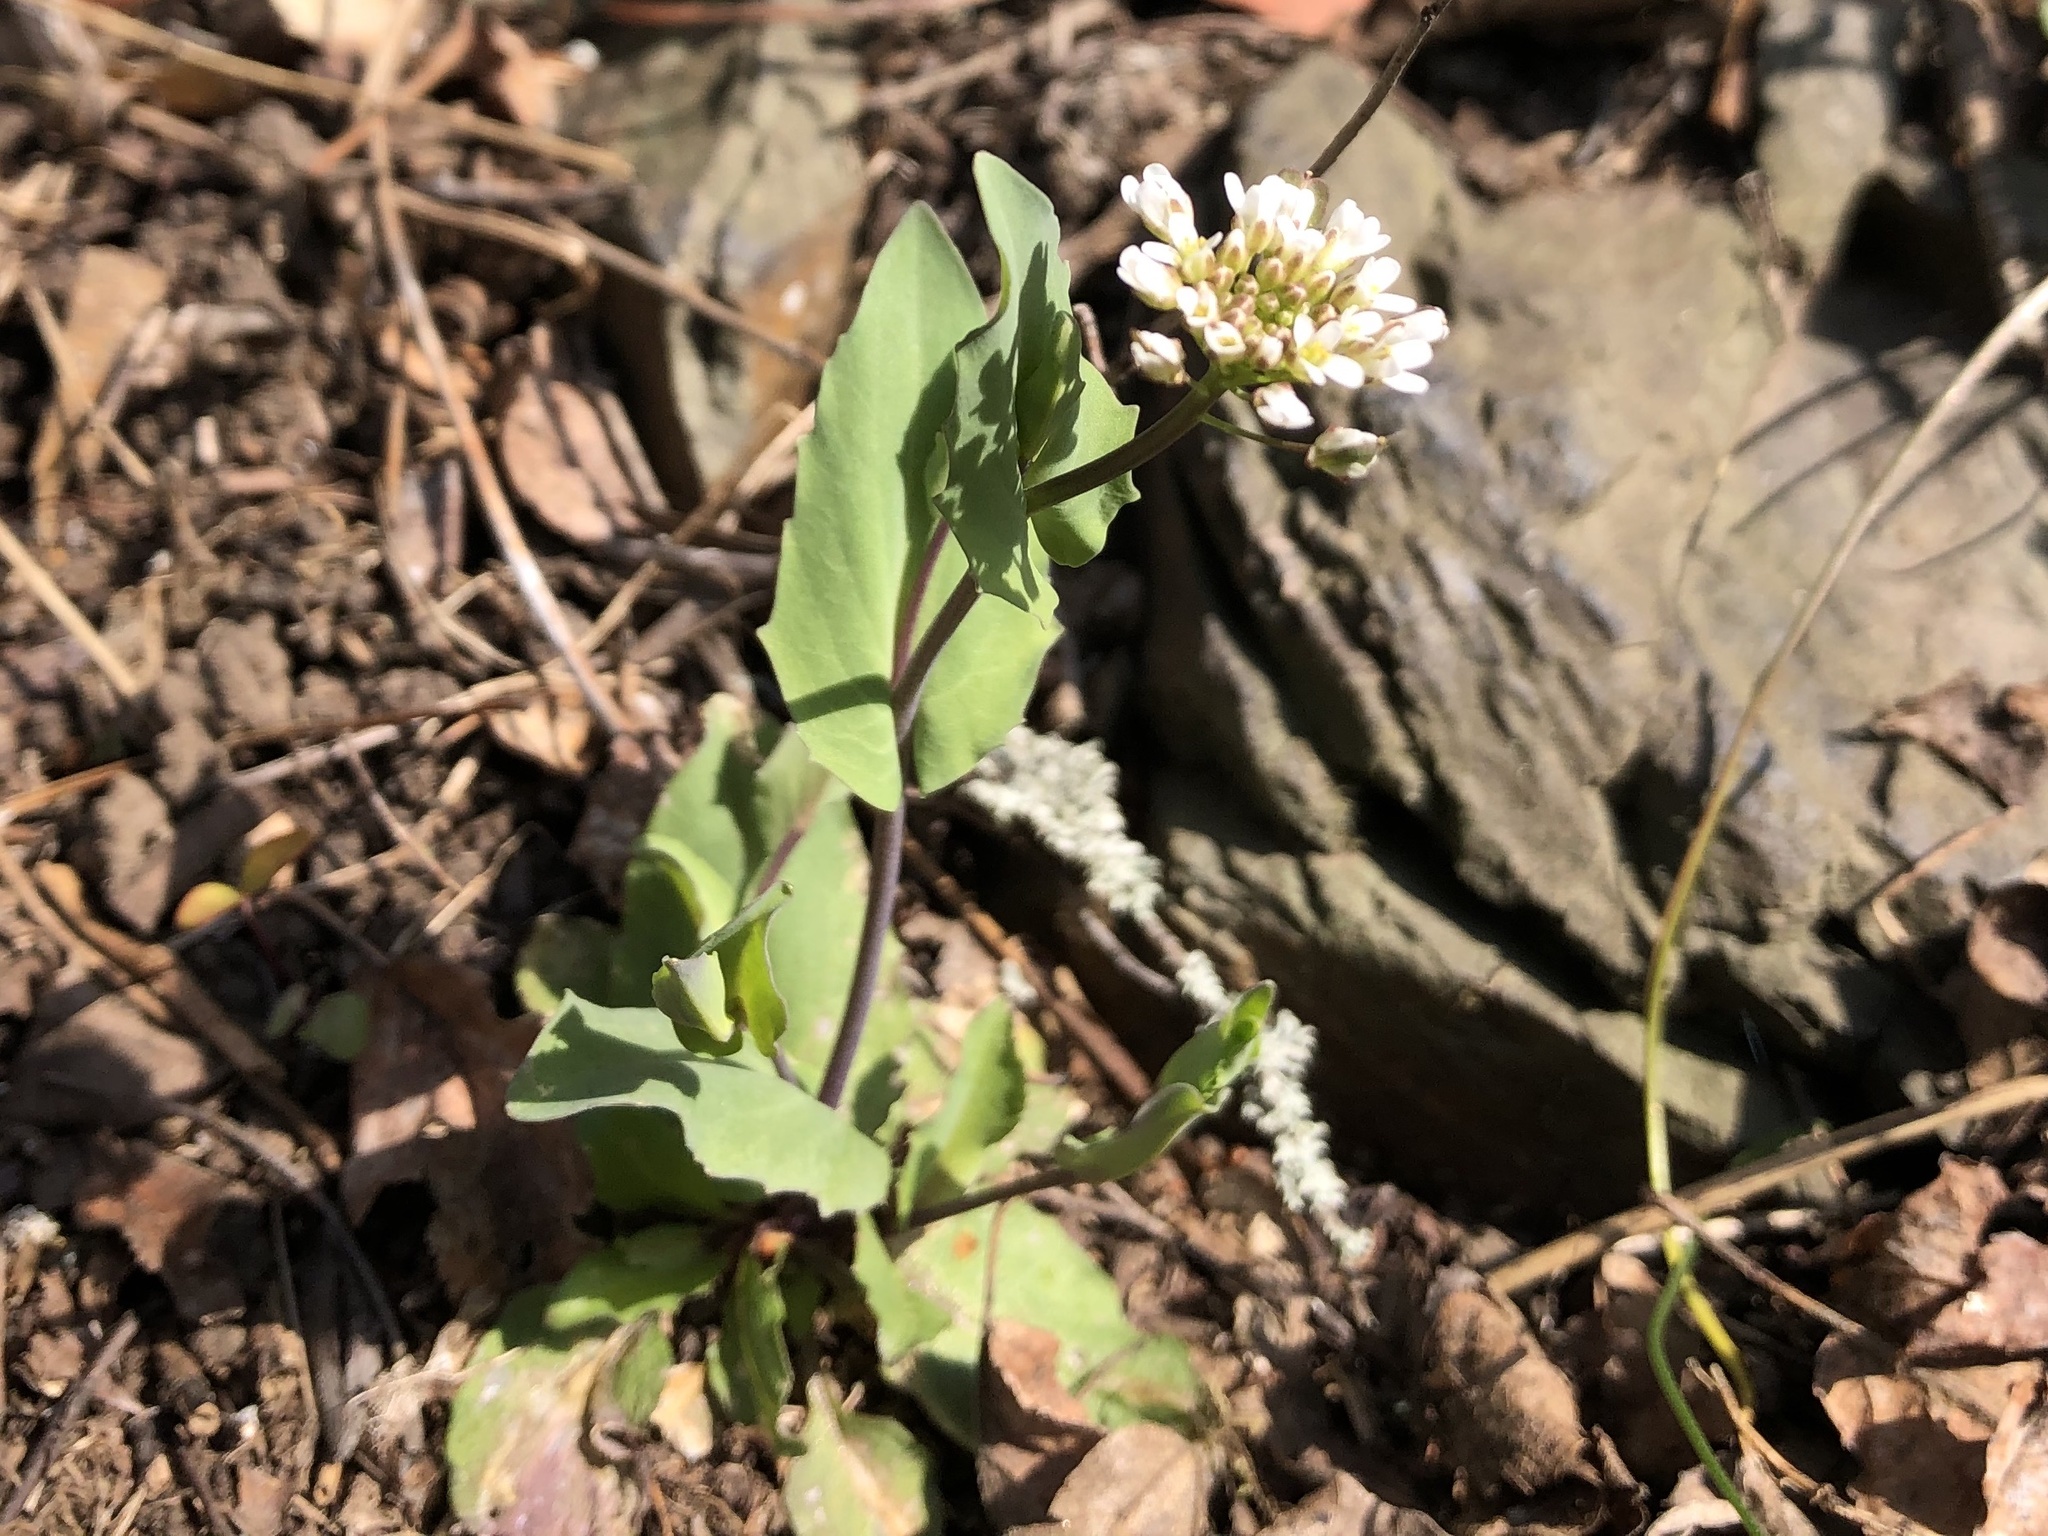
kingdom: Plantae
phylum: Tracheophyta
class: Magnoliopsida
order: Brassicales
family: Brassicaceae
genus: Noccaea
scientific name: Noccaea perfoliata
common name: Perfoliate pennycress
